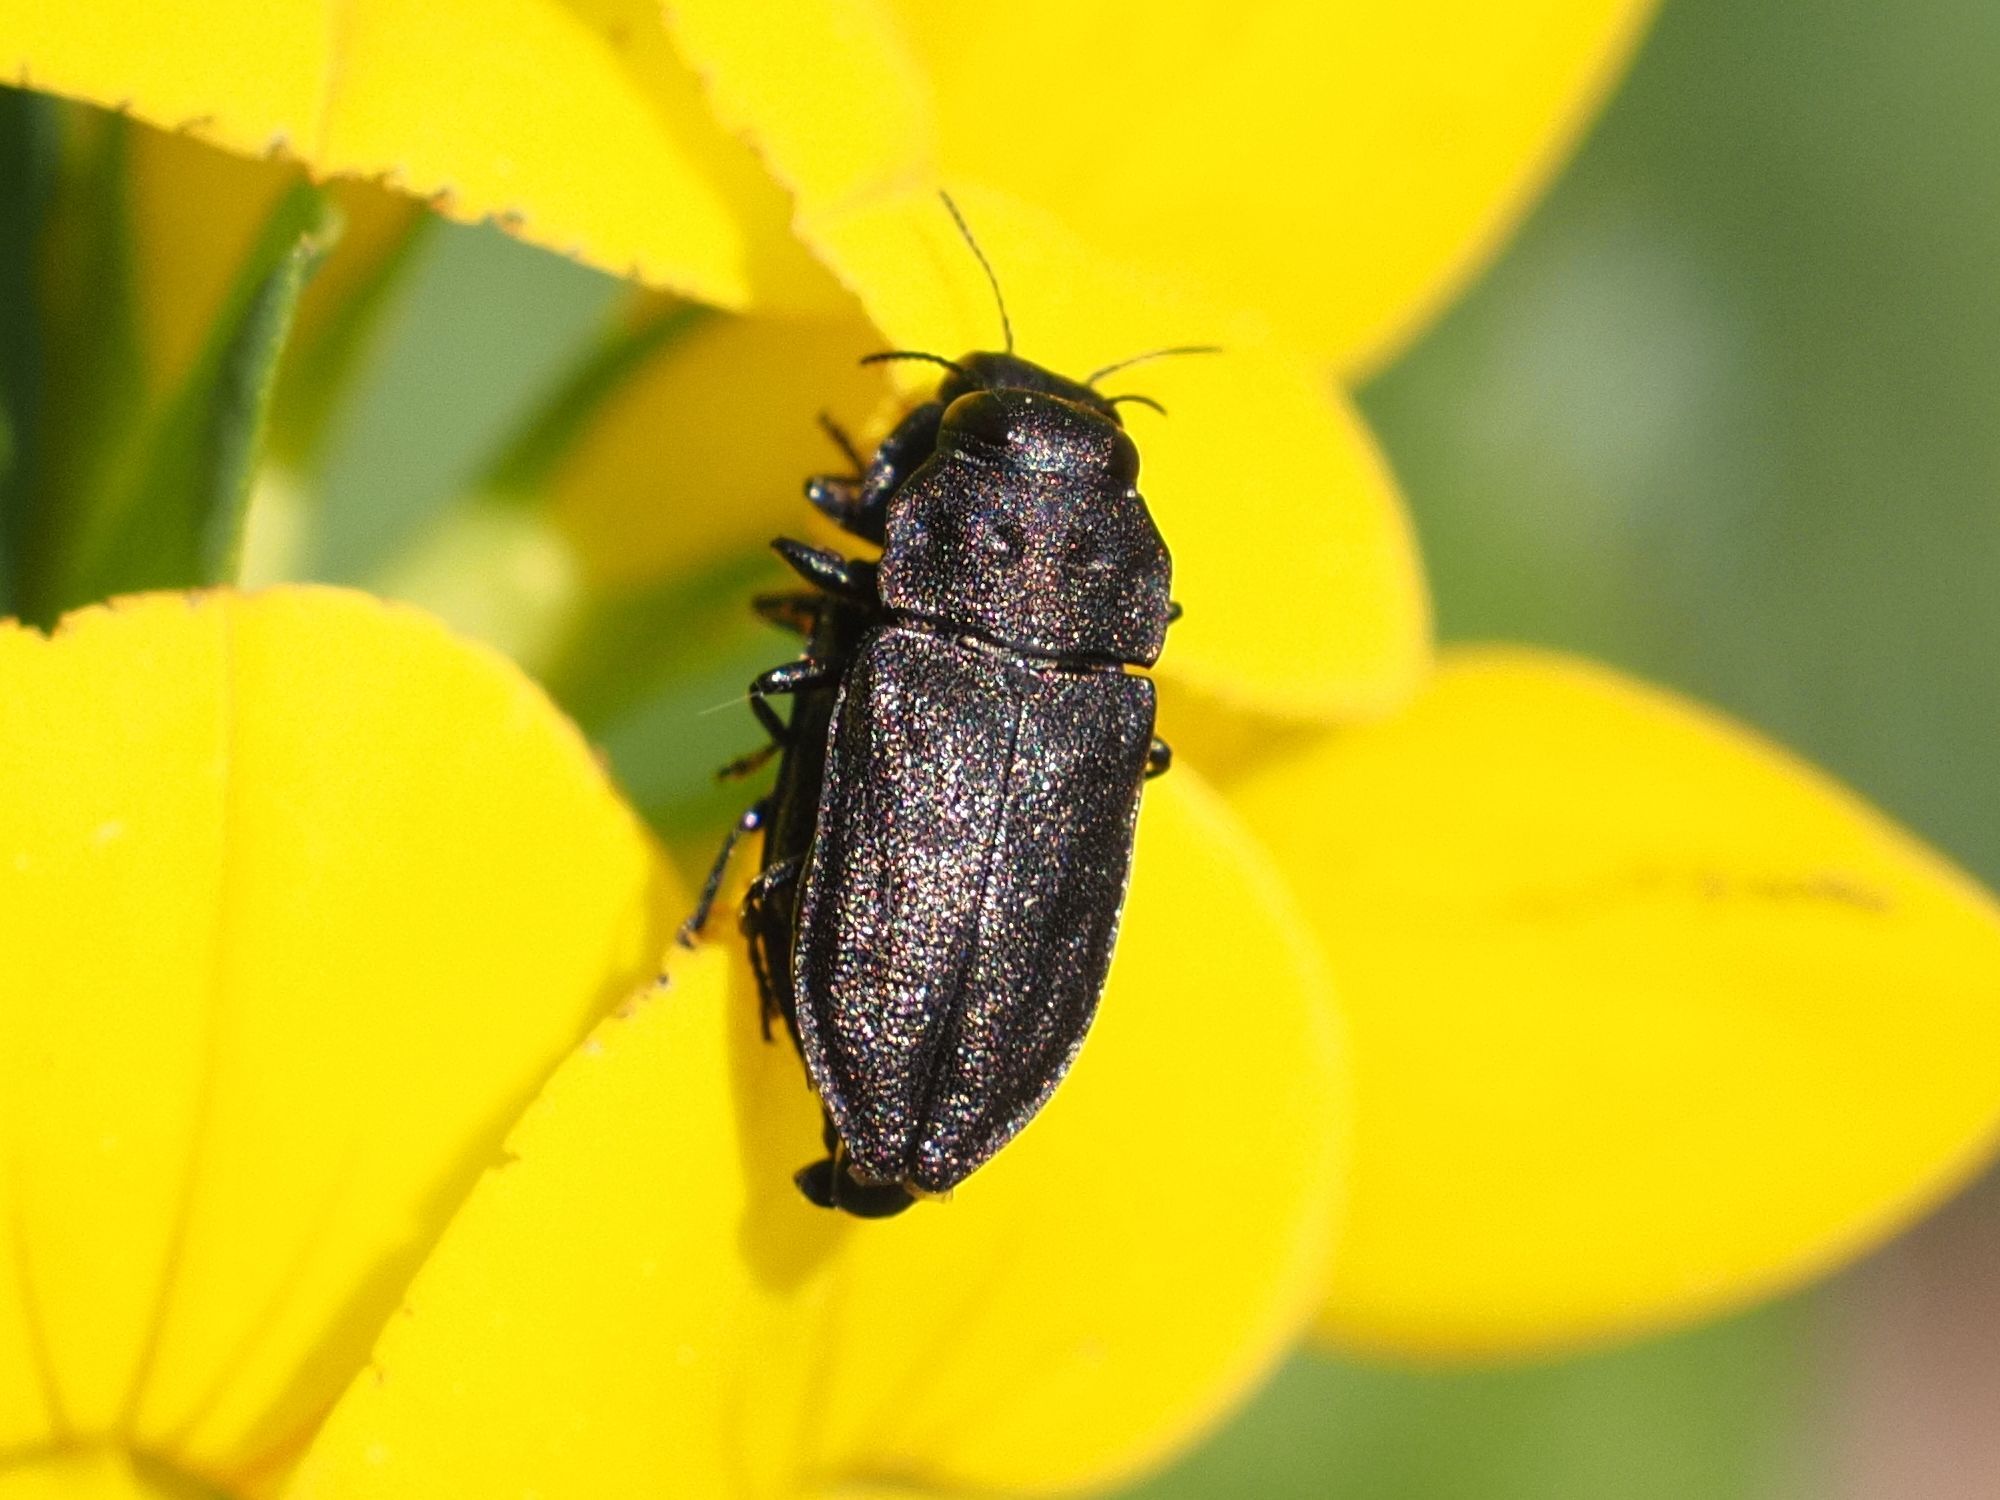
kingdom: Animalia
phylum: Arthropoda
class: Insecta
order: Coleoptera
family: Buprestidae
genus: Anthaxia
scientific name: Anthaxia quadripunctata
